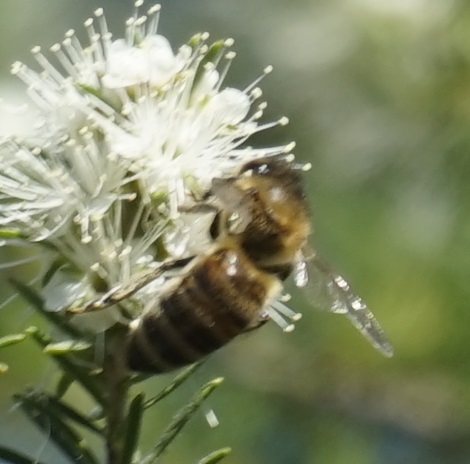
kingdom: Animalia
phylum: Arthropoda
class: Insecta
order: Hymenoptera
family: Apidae
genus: Apis
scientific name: Apis mellifera
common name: Honey bee
